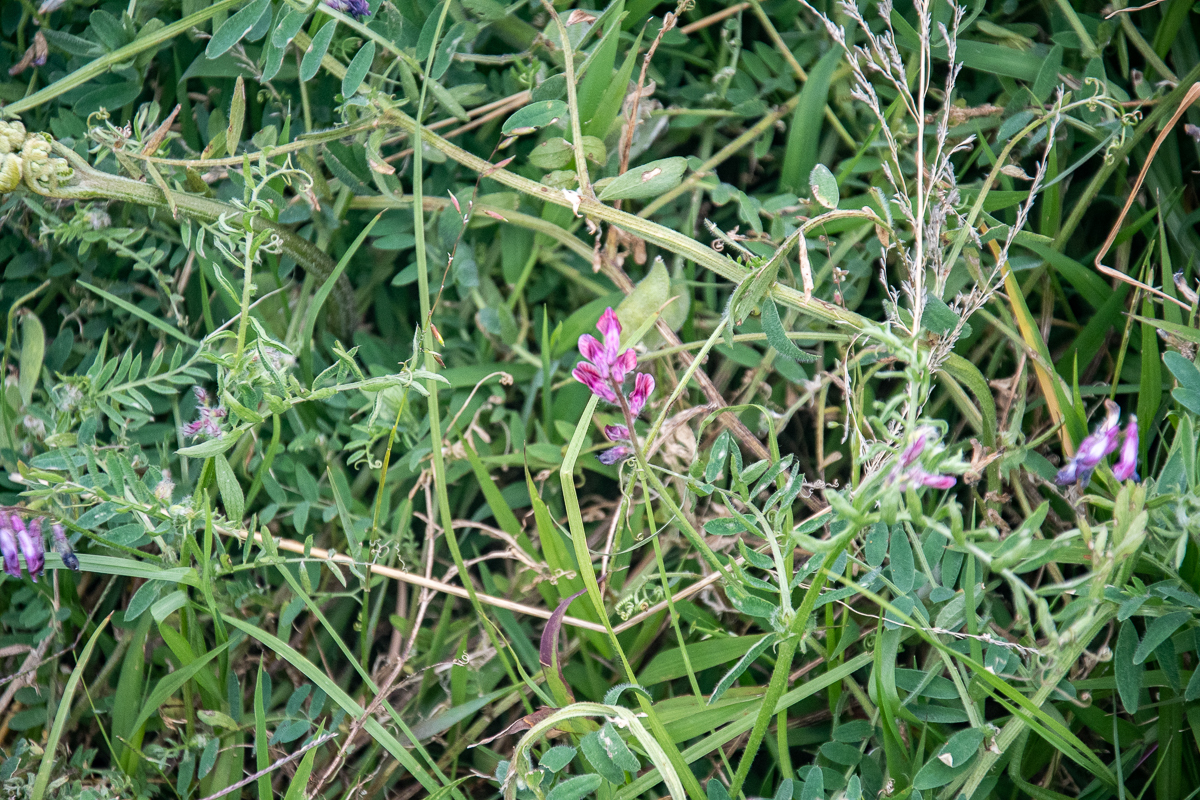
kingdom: Plantae
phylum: Tracheophyta
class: Magnoliopsida
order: Fabales
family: Fabaceae
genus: Vicia
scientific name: Vicia benghalensis
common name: Purple vetch
